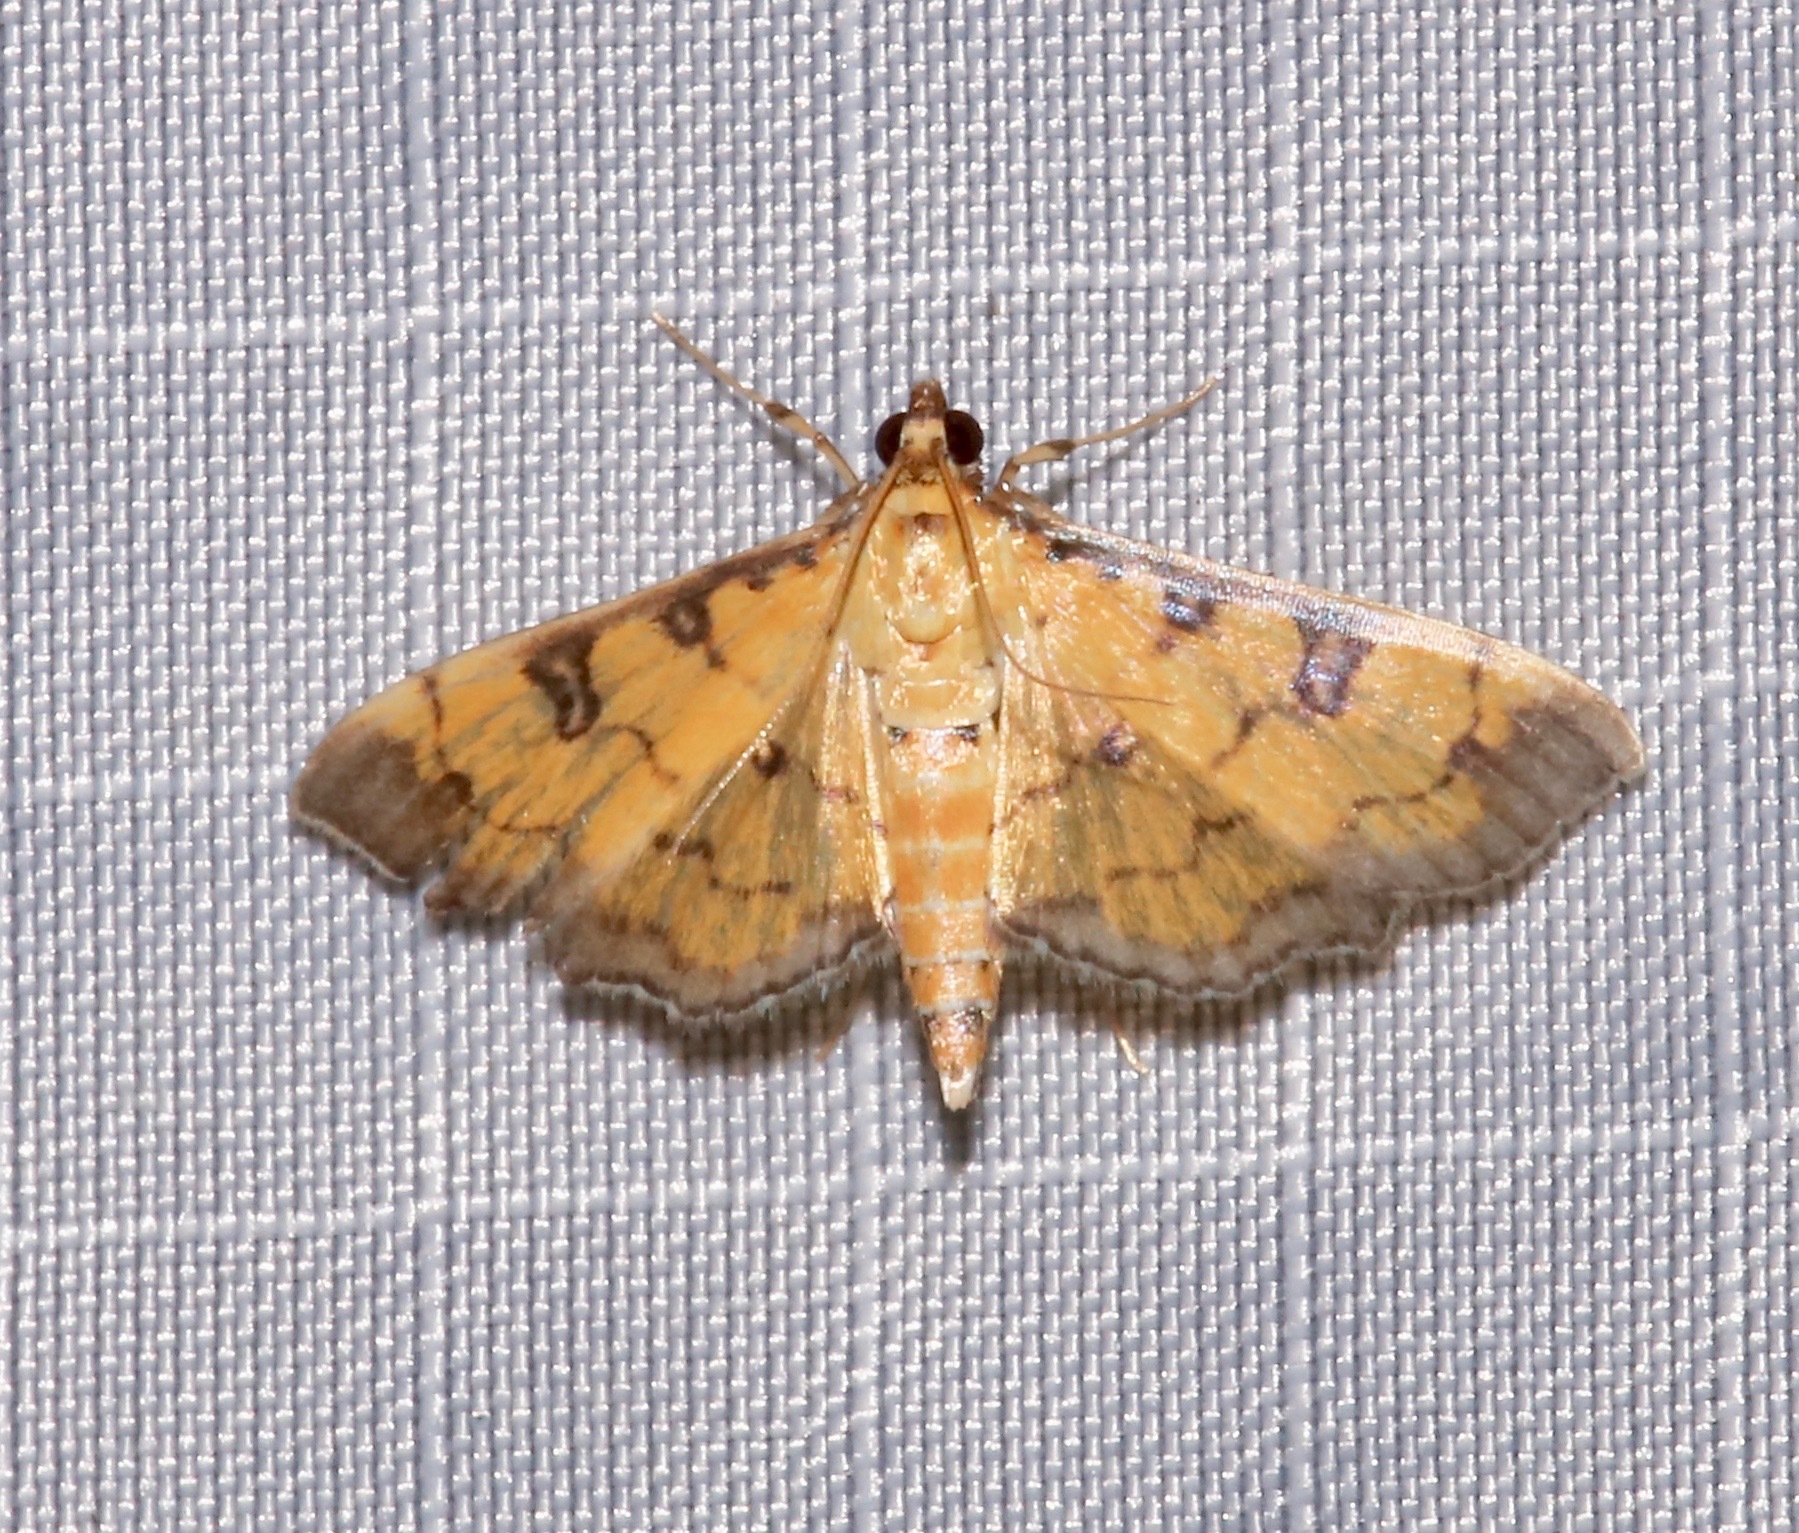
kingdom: Animalia
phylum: Arthropoda
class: Insecta
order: Lepidoptera
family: Crambidae
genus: Ategumia
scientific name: Ategumia ebulealis
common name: Moth
